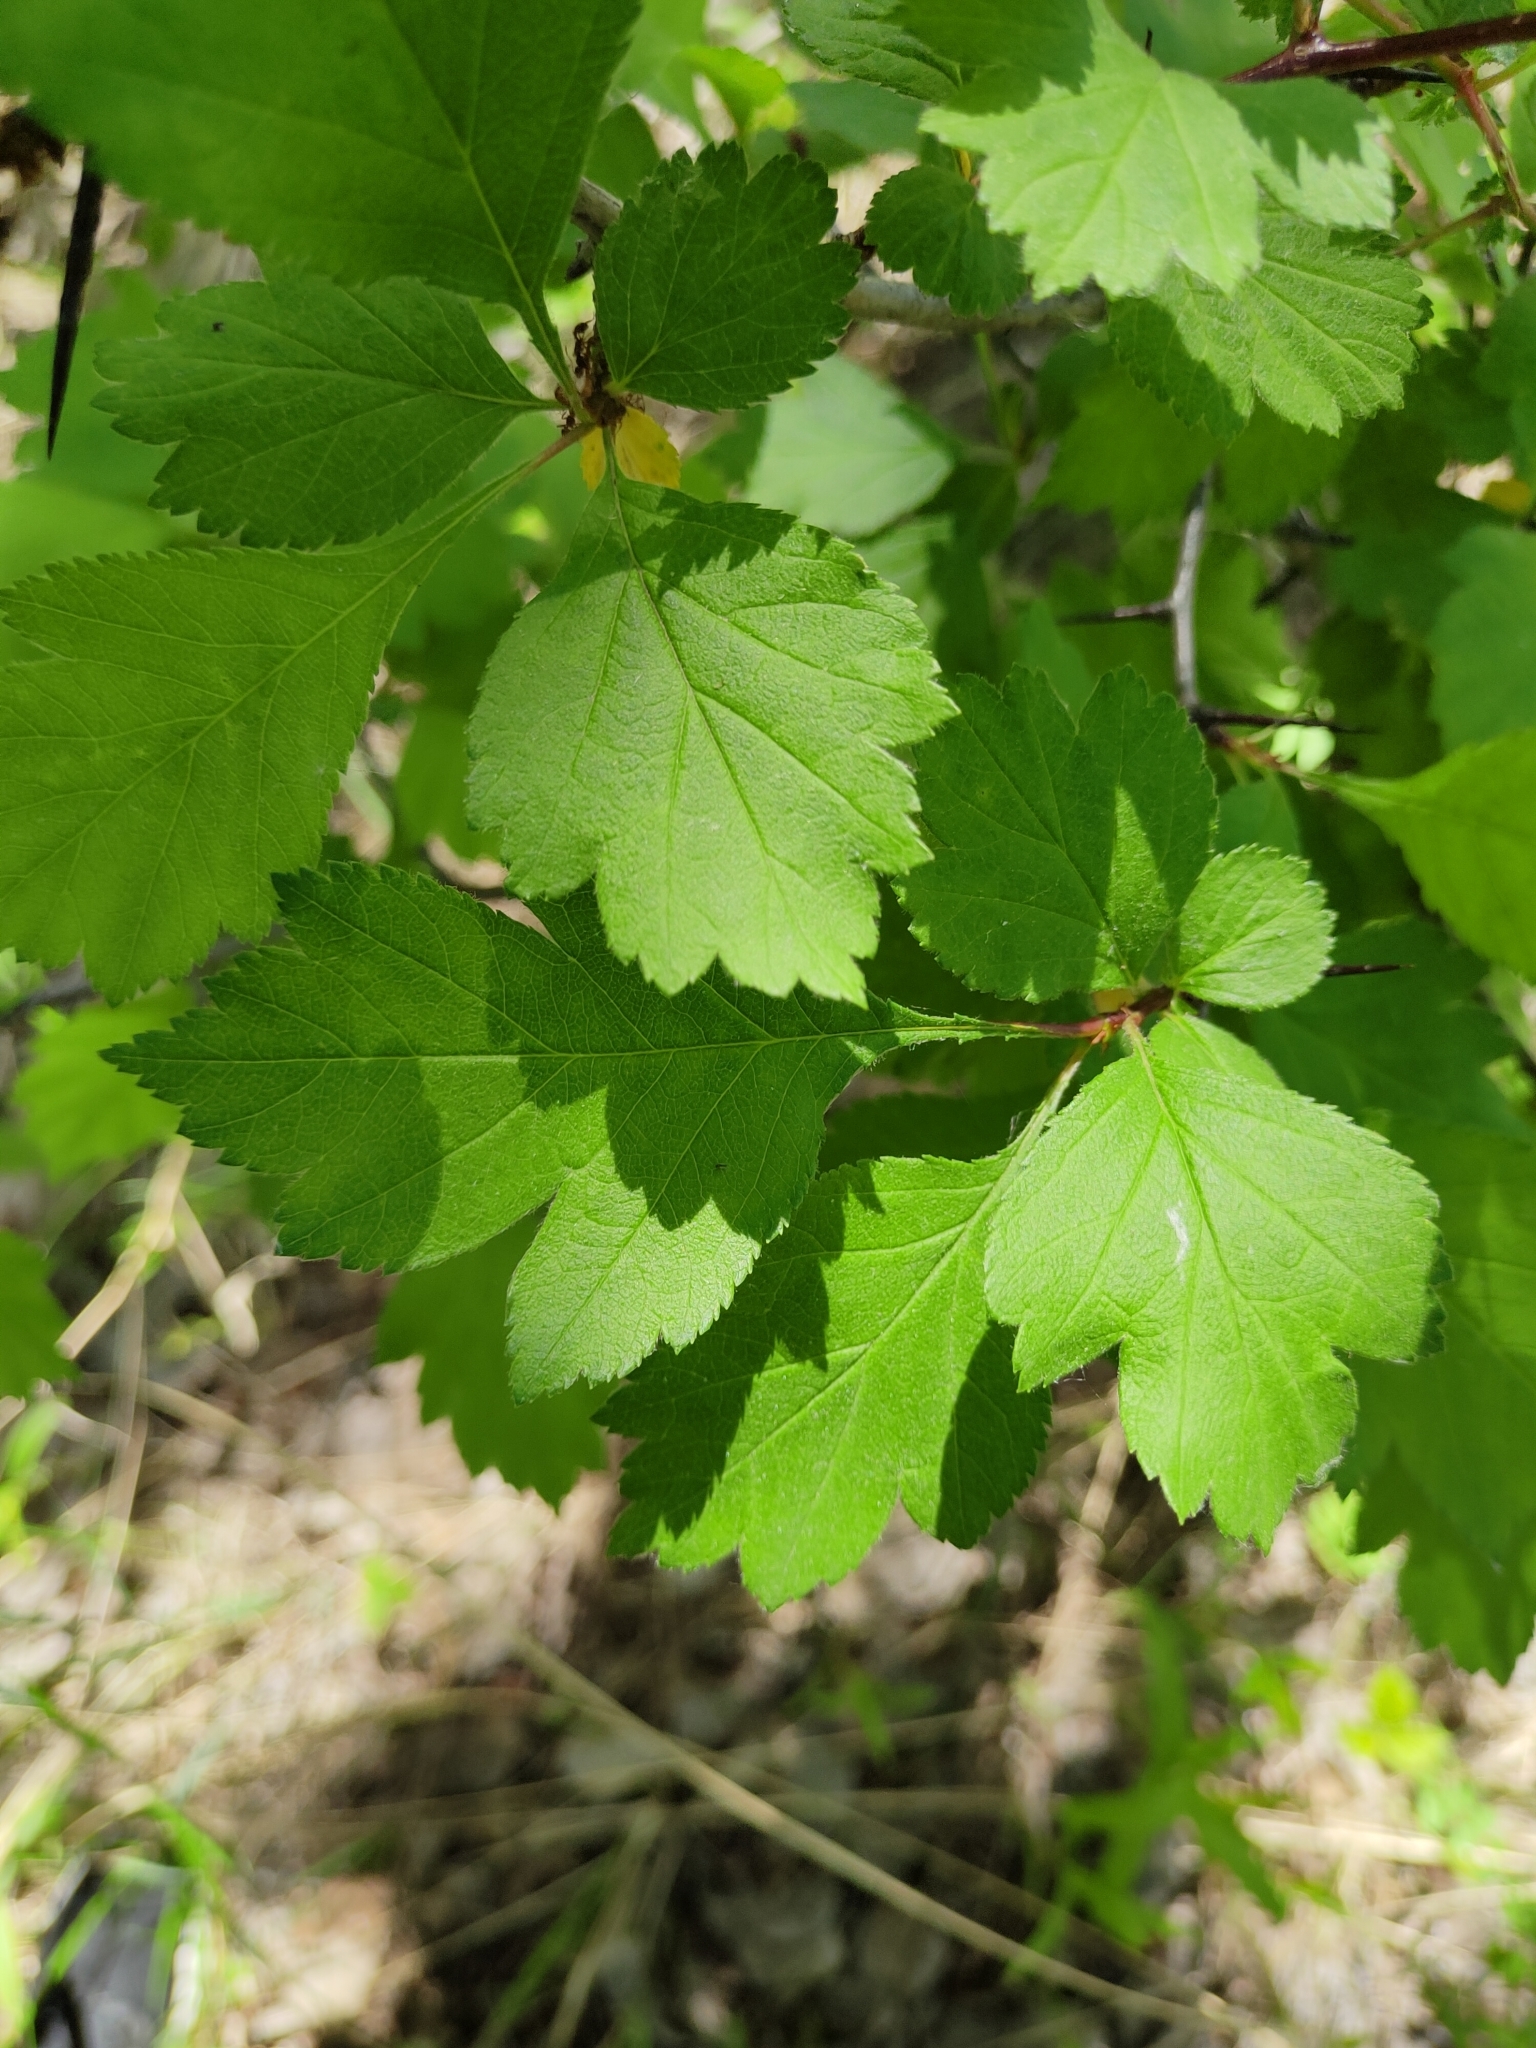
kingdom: Plantae
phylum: Tracheophyta
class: Magnoliopsida
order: Rosales
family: Rosaceae
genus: Crataegus
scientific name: Crataegus sanguinea
